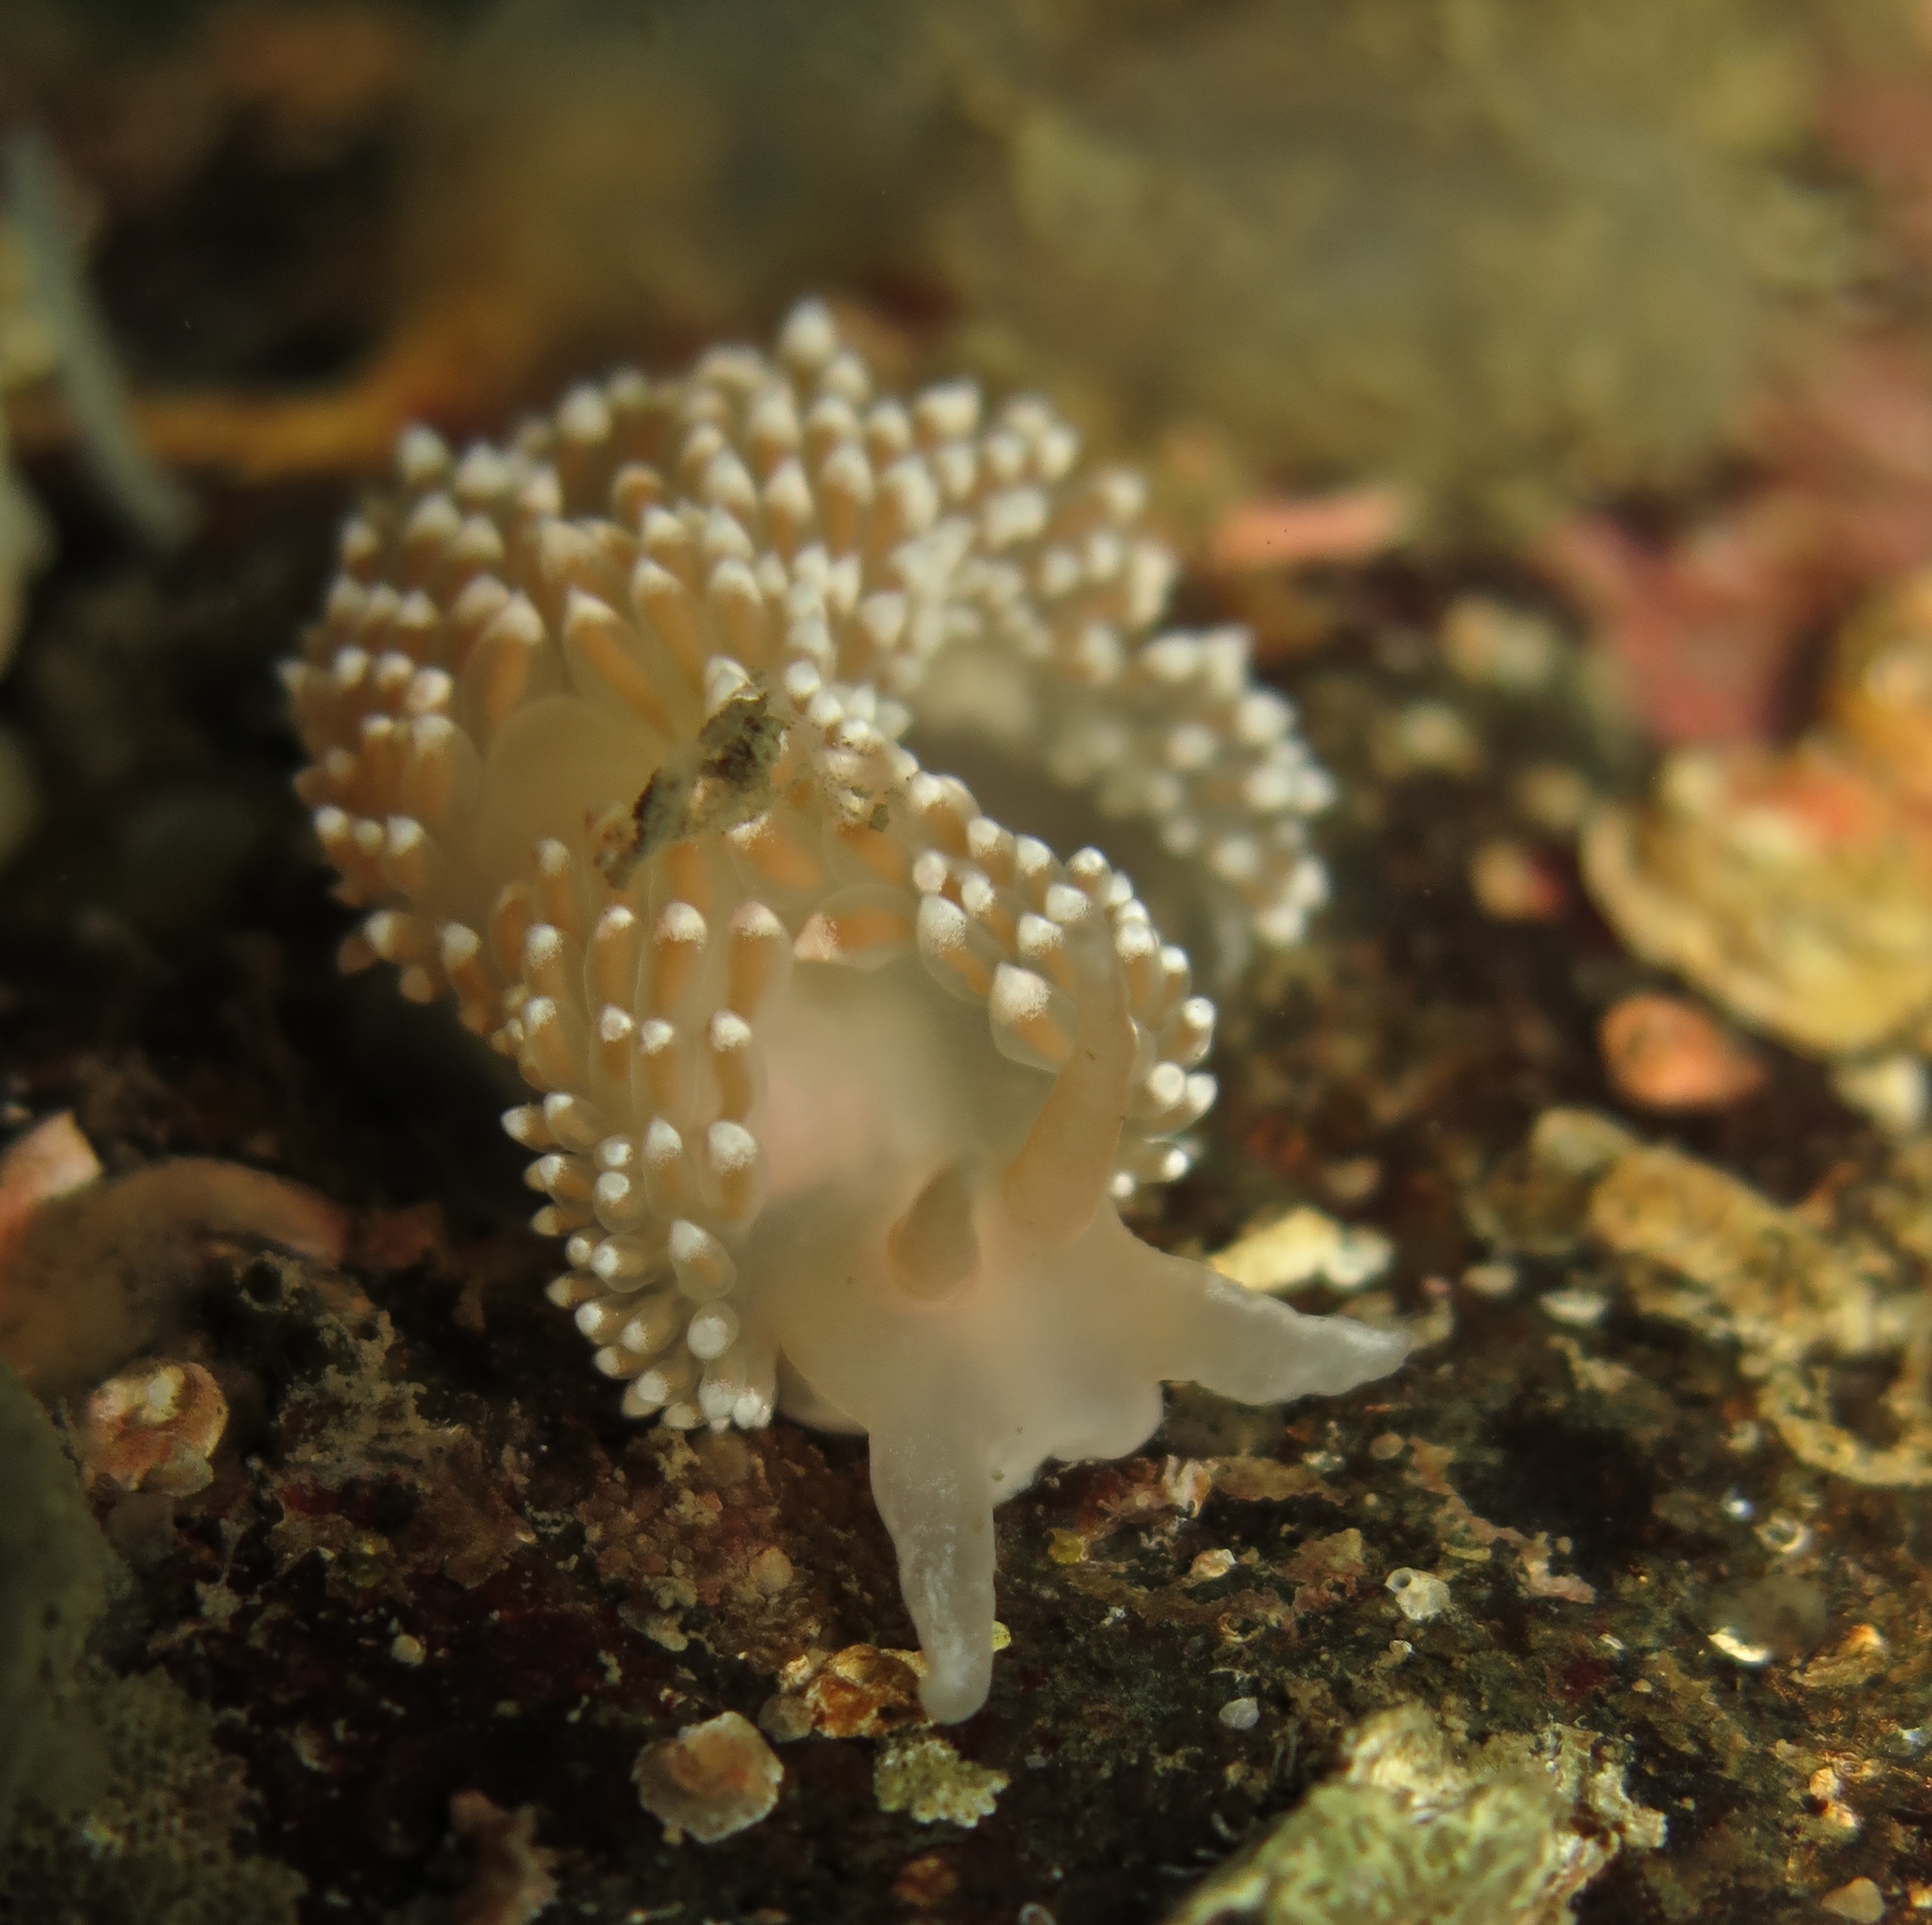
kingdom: Animalia
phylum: Mollusca
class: Gastropoda
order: Nudibranchia
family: Coryphellidae
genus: Coryphella
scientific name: Coryphella verrucosa
